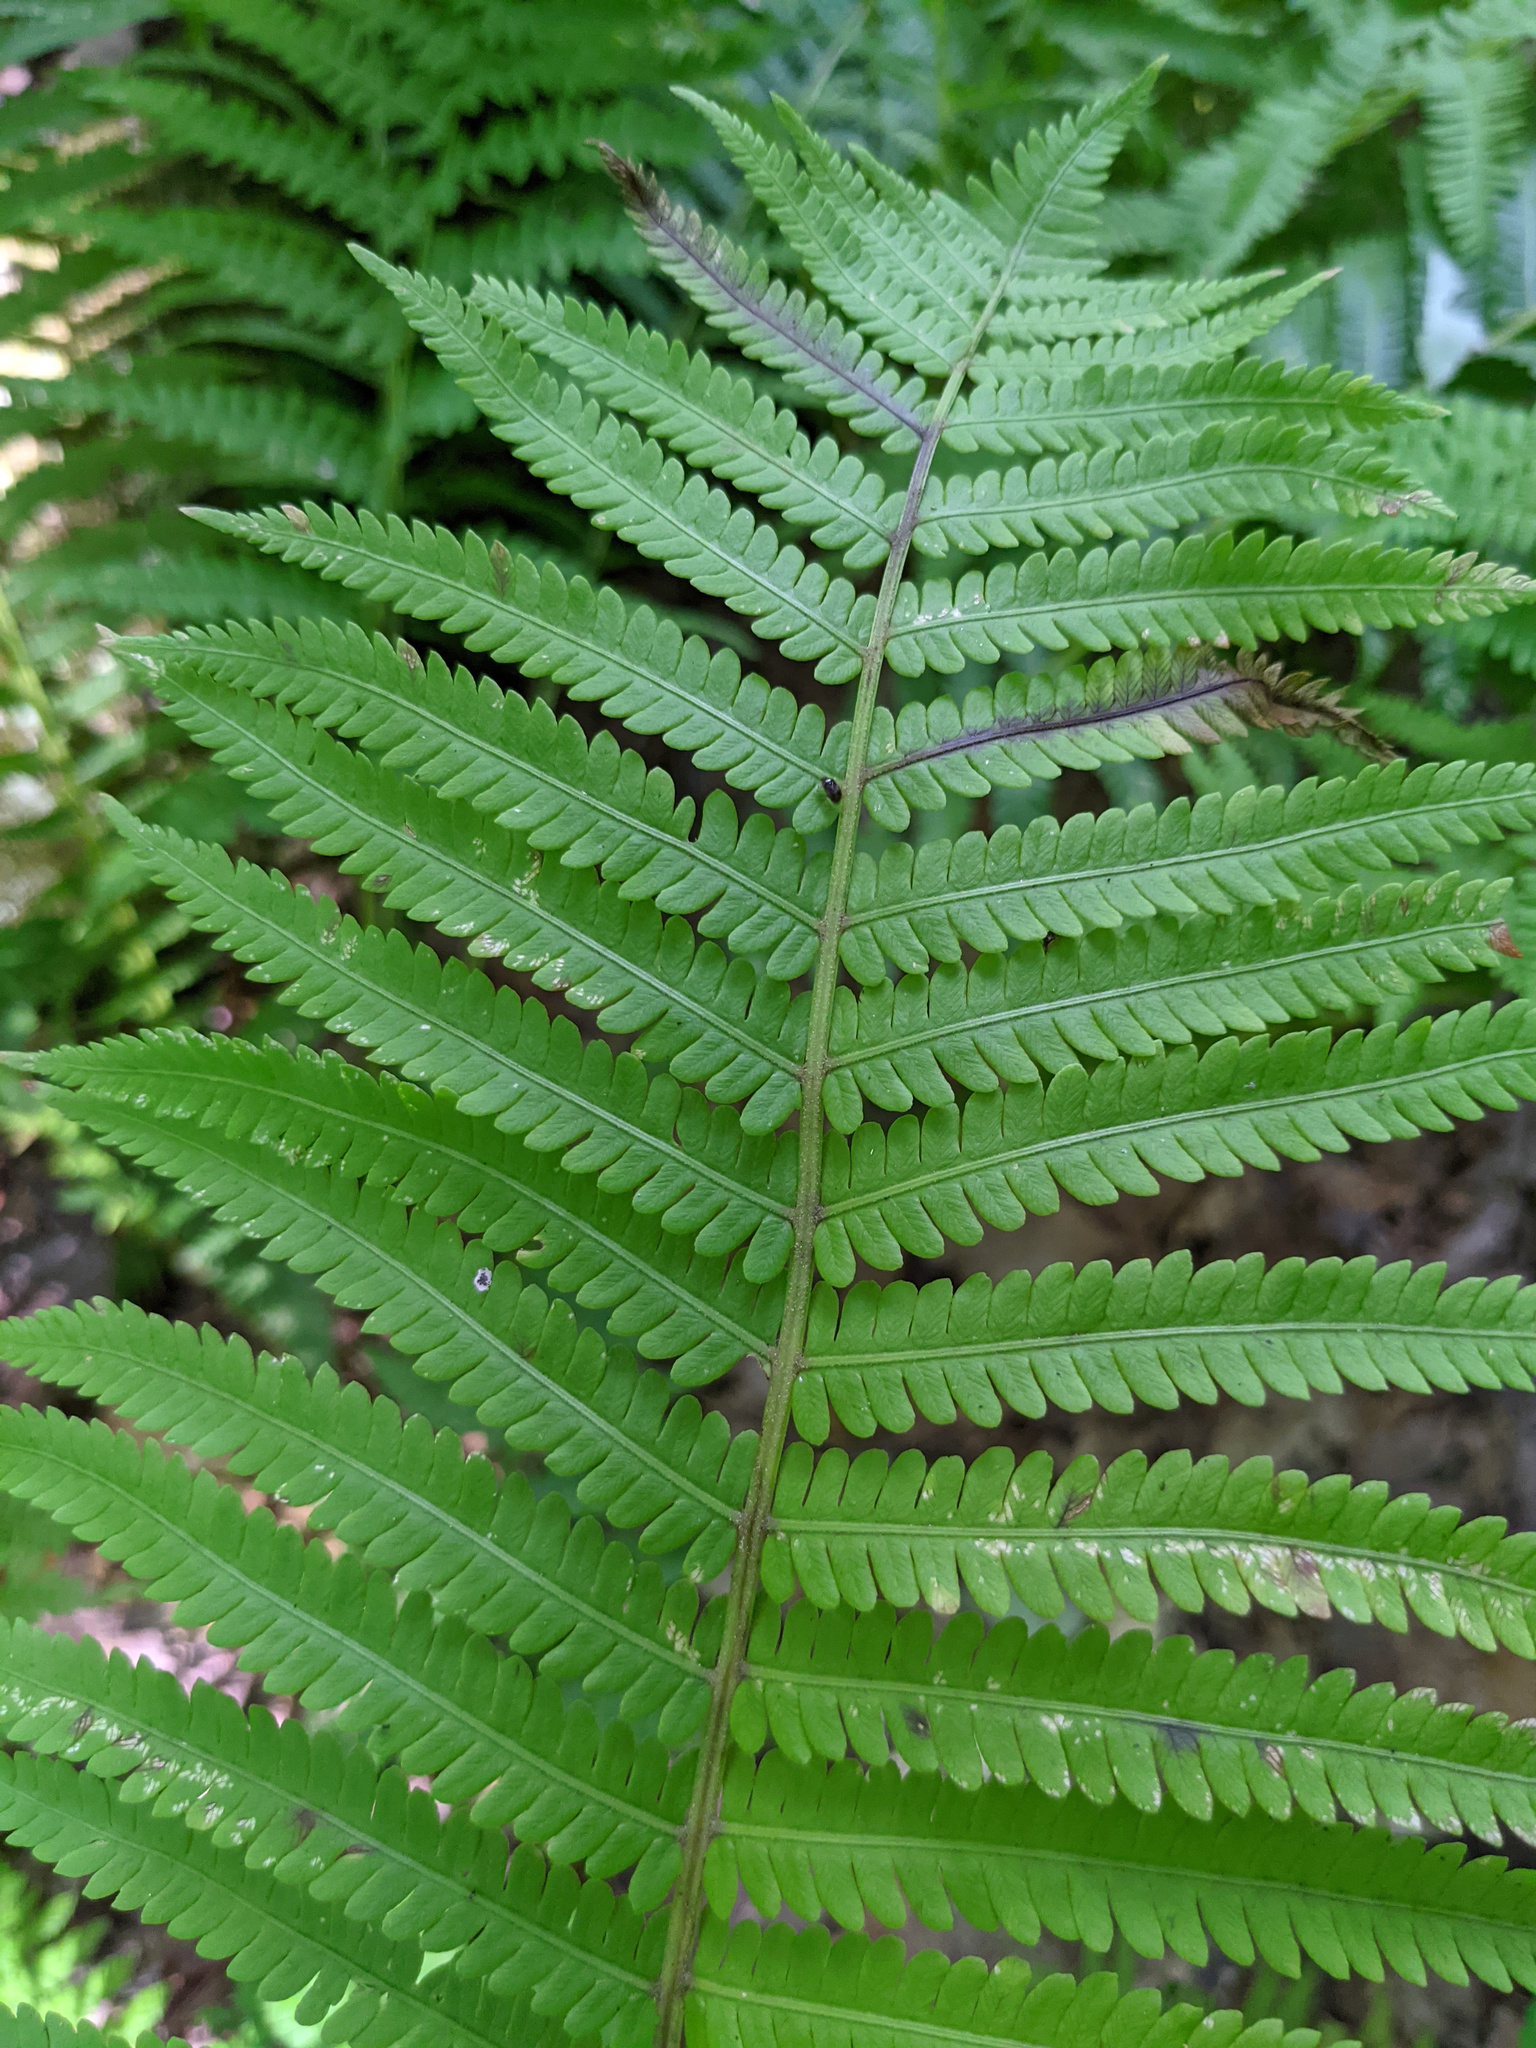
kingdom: Plantae
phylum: Tracheophyta
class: Polypodiopsida
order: Polypodiales
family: Onocleaceae
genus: Matteuccia
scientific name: Matteuccia struthiopteris
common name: Ostrich fern
